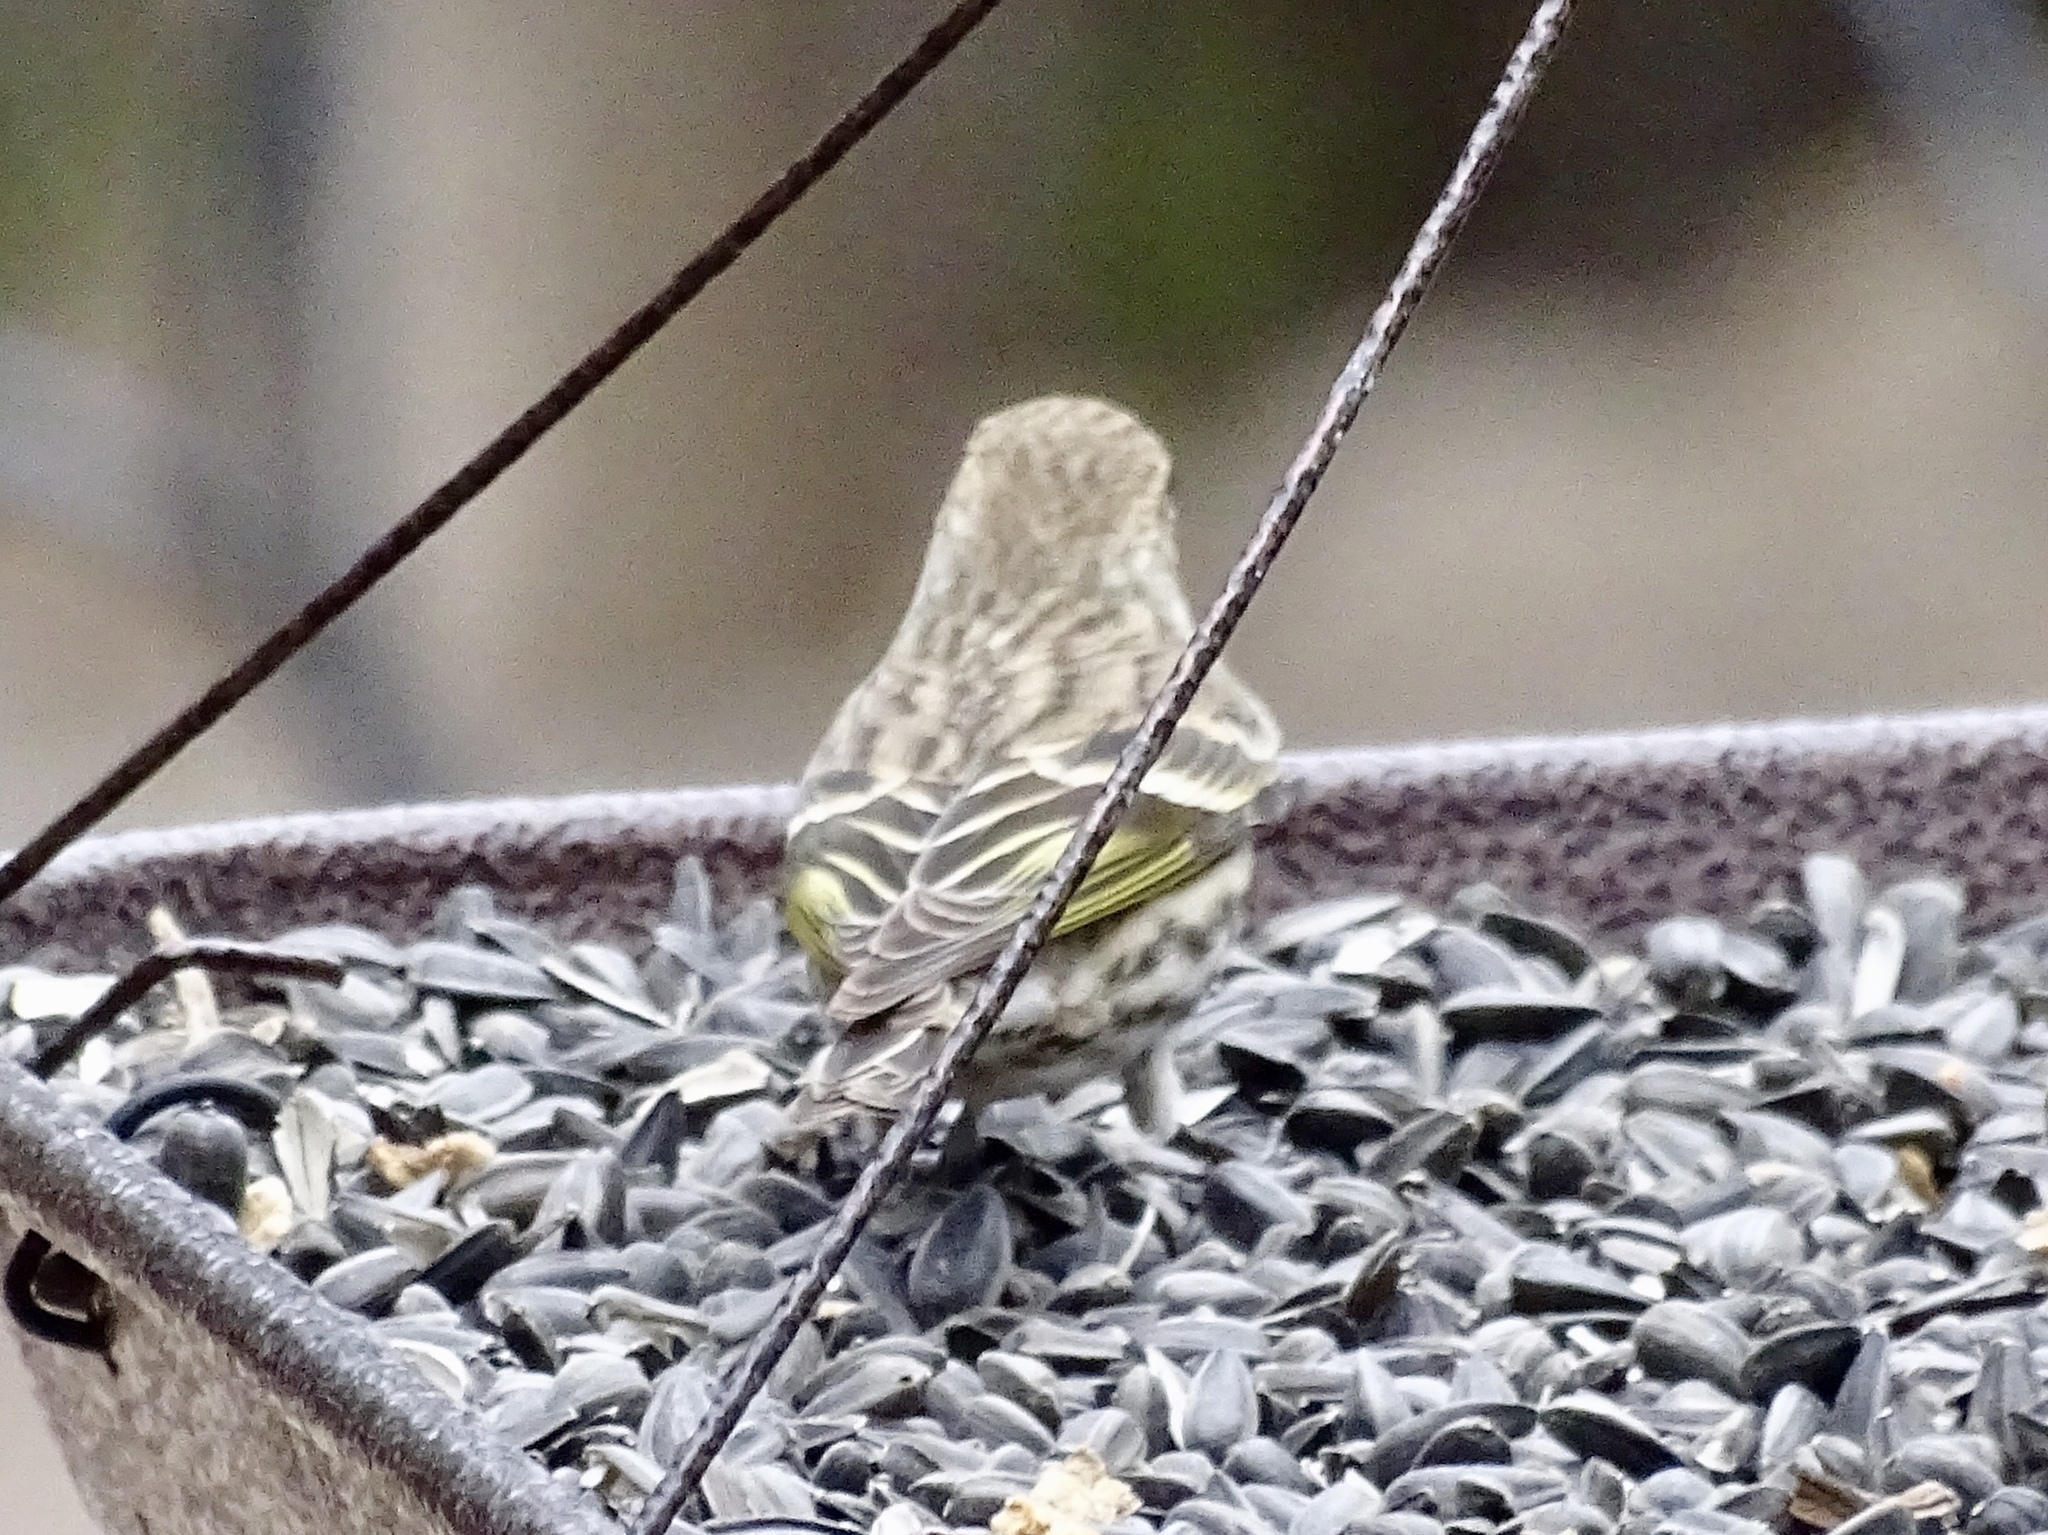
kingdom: Animalia
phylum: Chordata
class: Aves
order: Passeriformes
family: Fringillidae
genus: Spinus
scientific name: Spinus pinus
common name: Pine siskin
